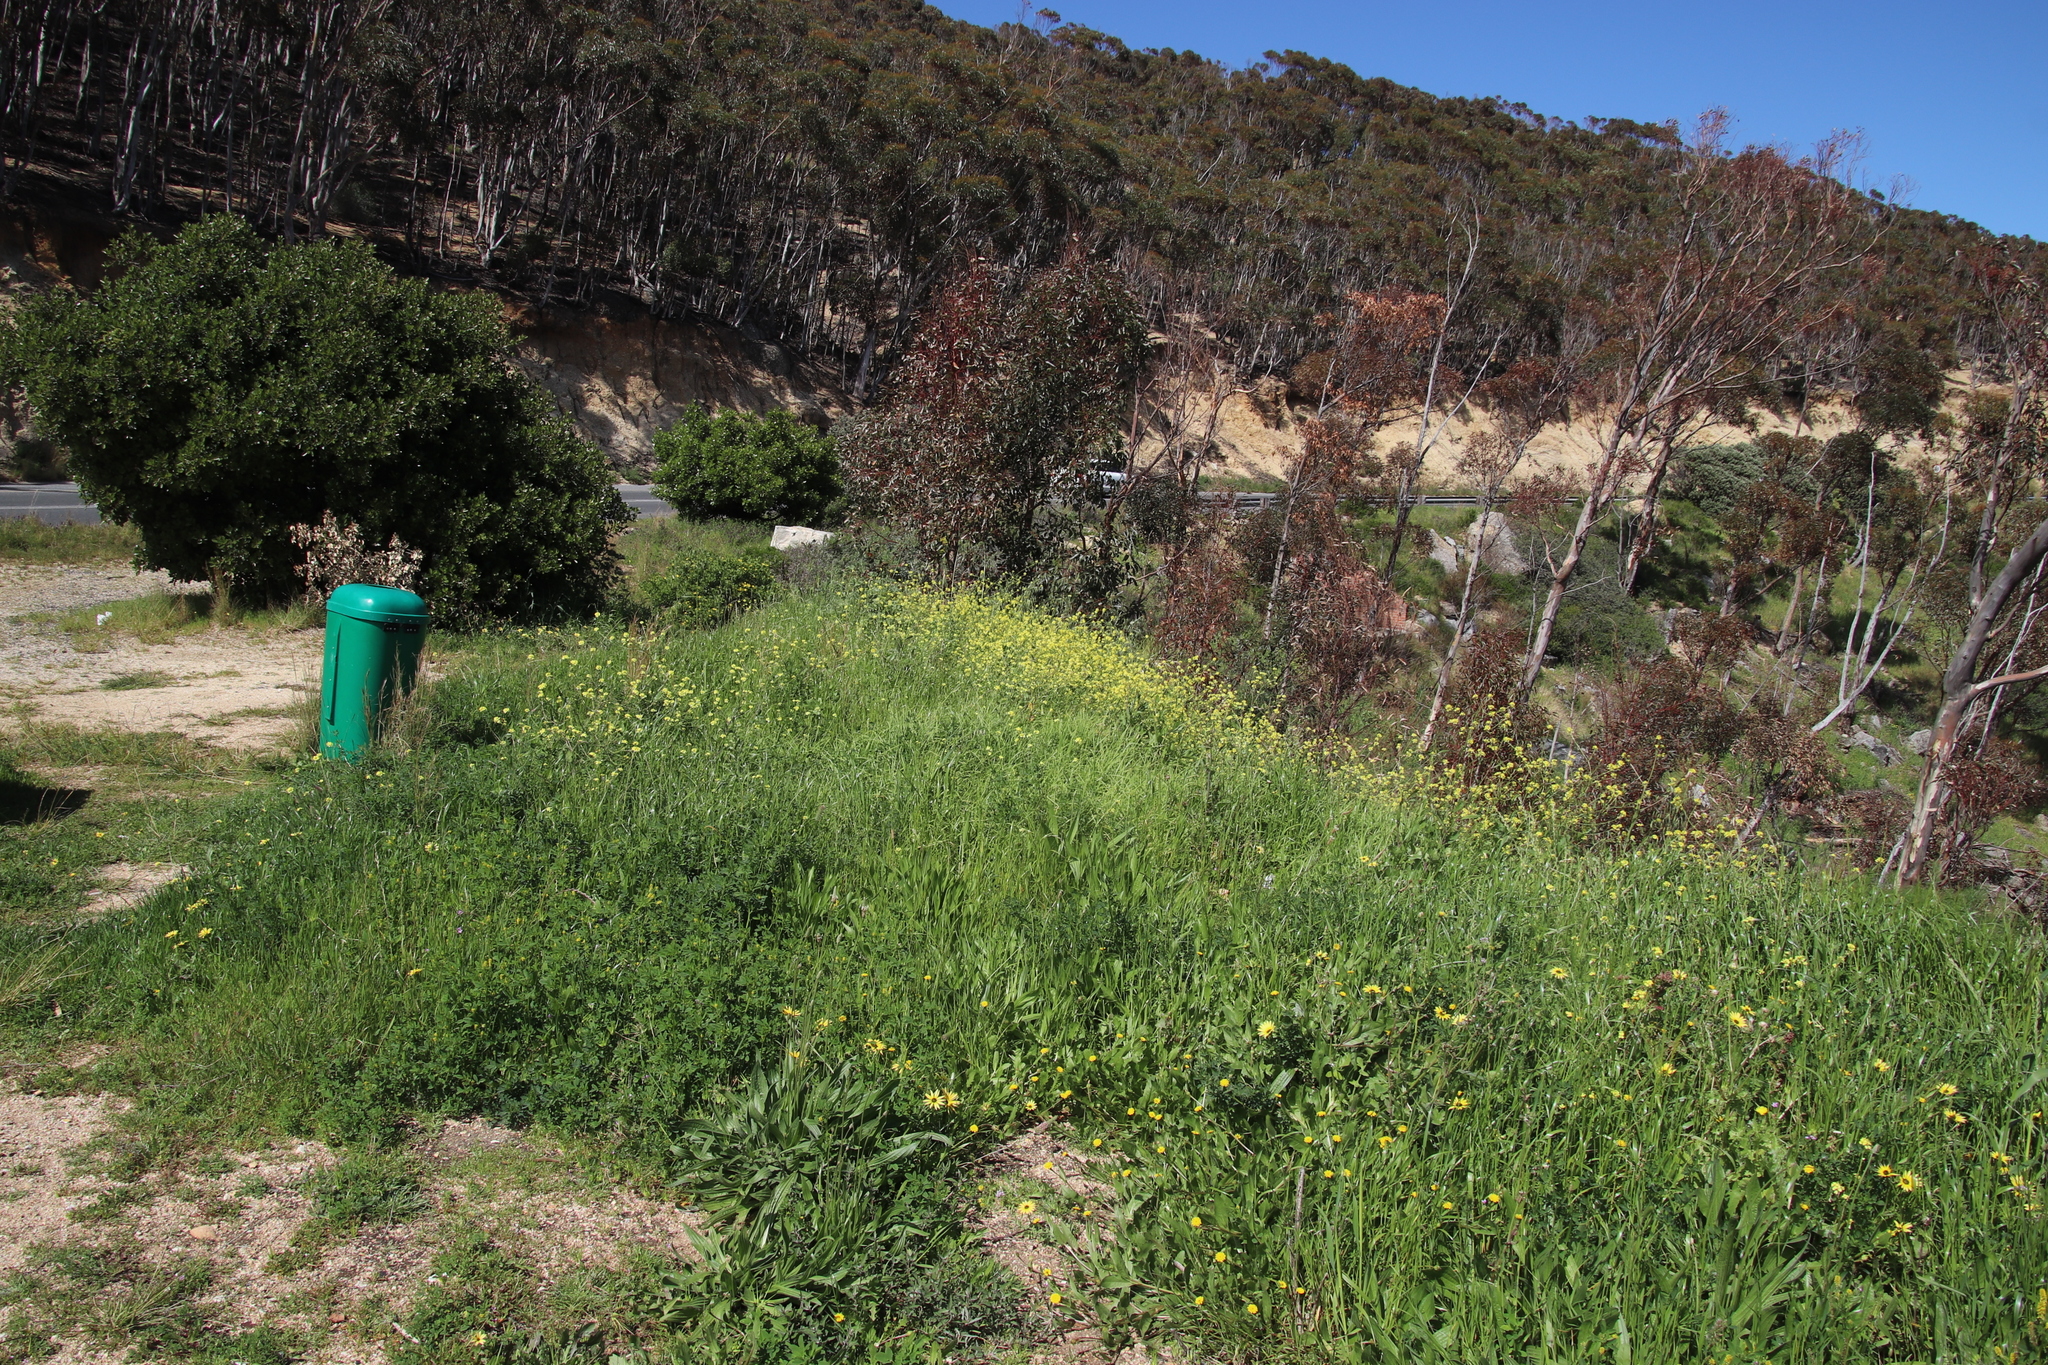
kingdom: Plantae
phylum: Tracheophyta
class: Magnoliopsida
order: Brassicales
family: Brassicaceae
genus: Rapistrum
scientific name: Rapistrum rugosum
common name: Annual bastardcabbage
